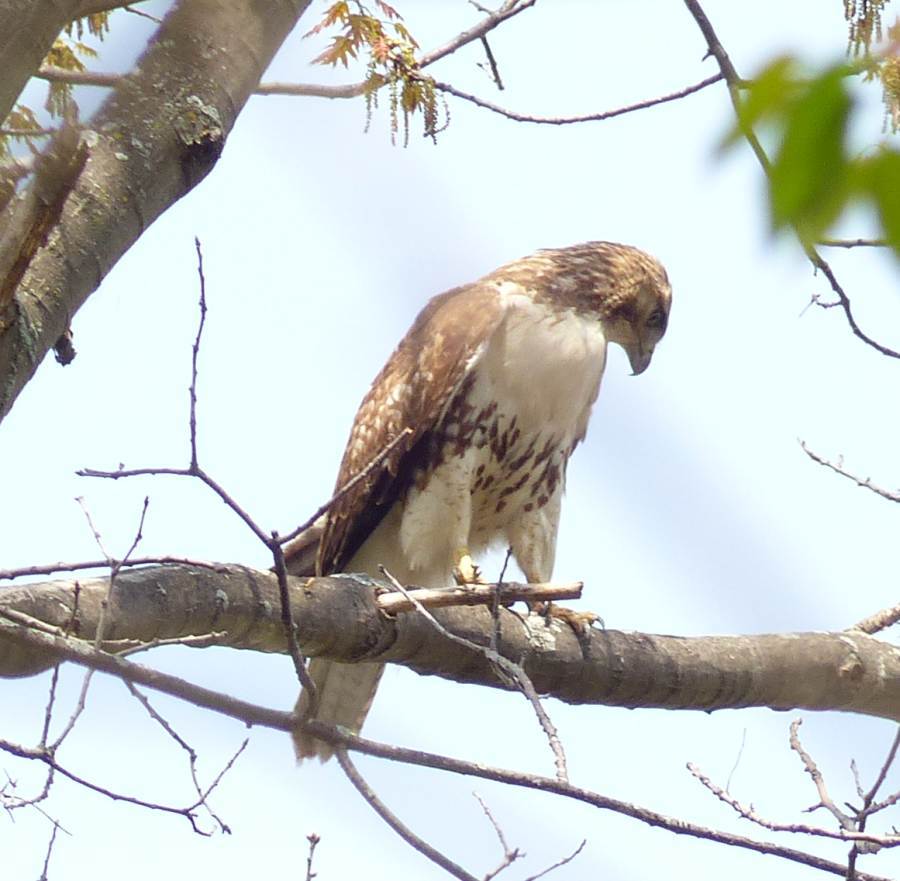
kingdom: Animalia
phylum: Chordata
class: Aves
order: Accipitriformes
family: Accipitridae
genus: Buteo
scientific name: Buteo jamaicensis
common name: Red-tailed hawk
